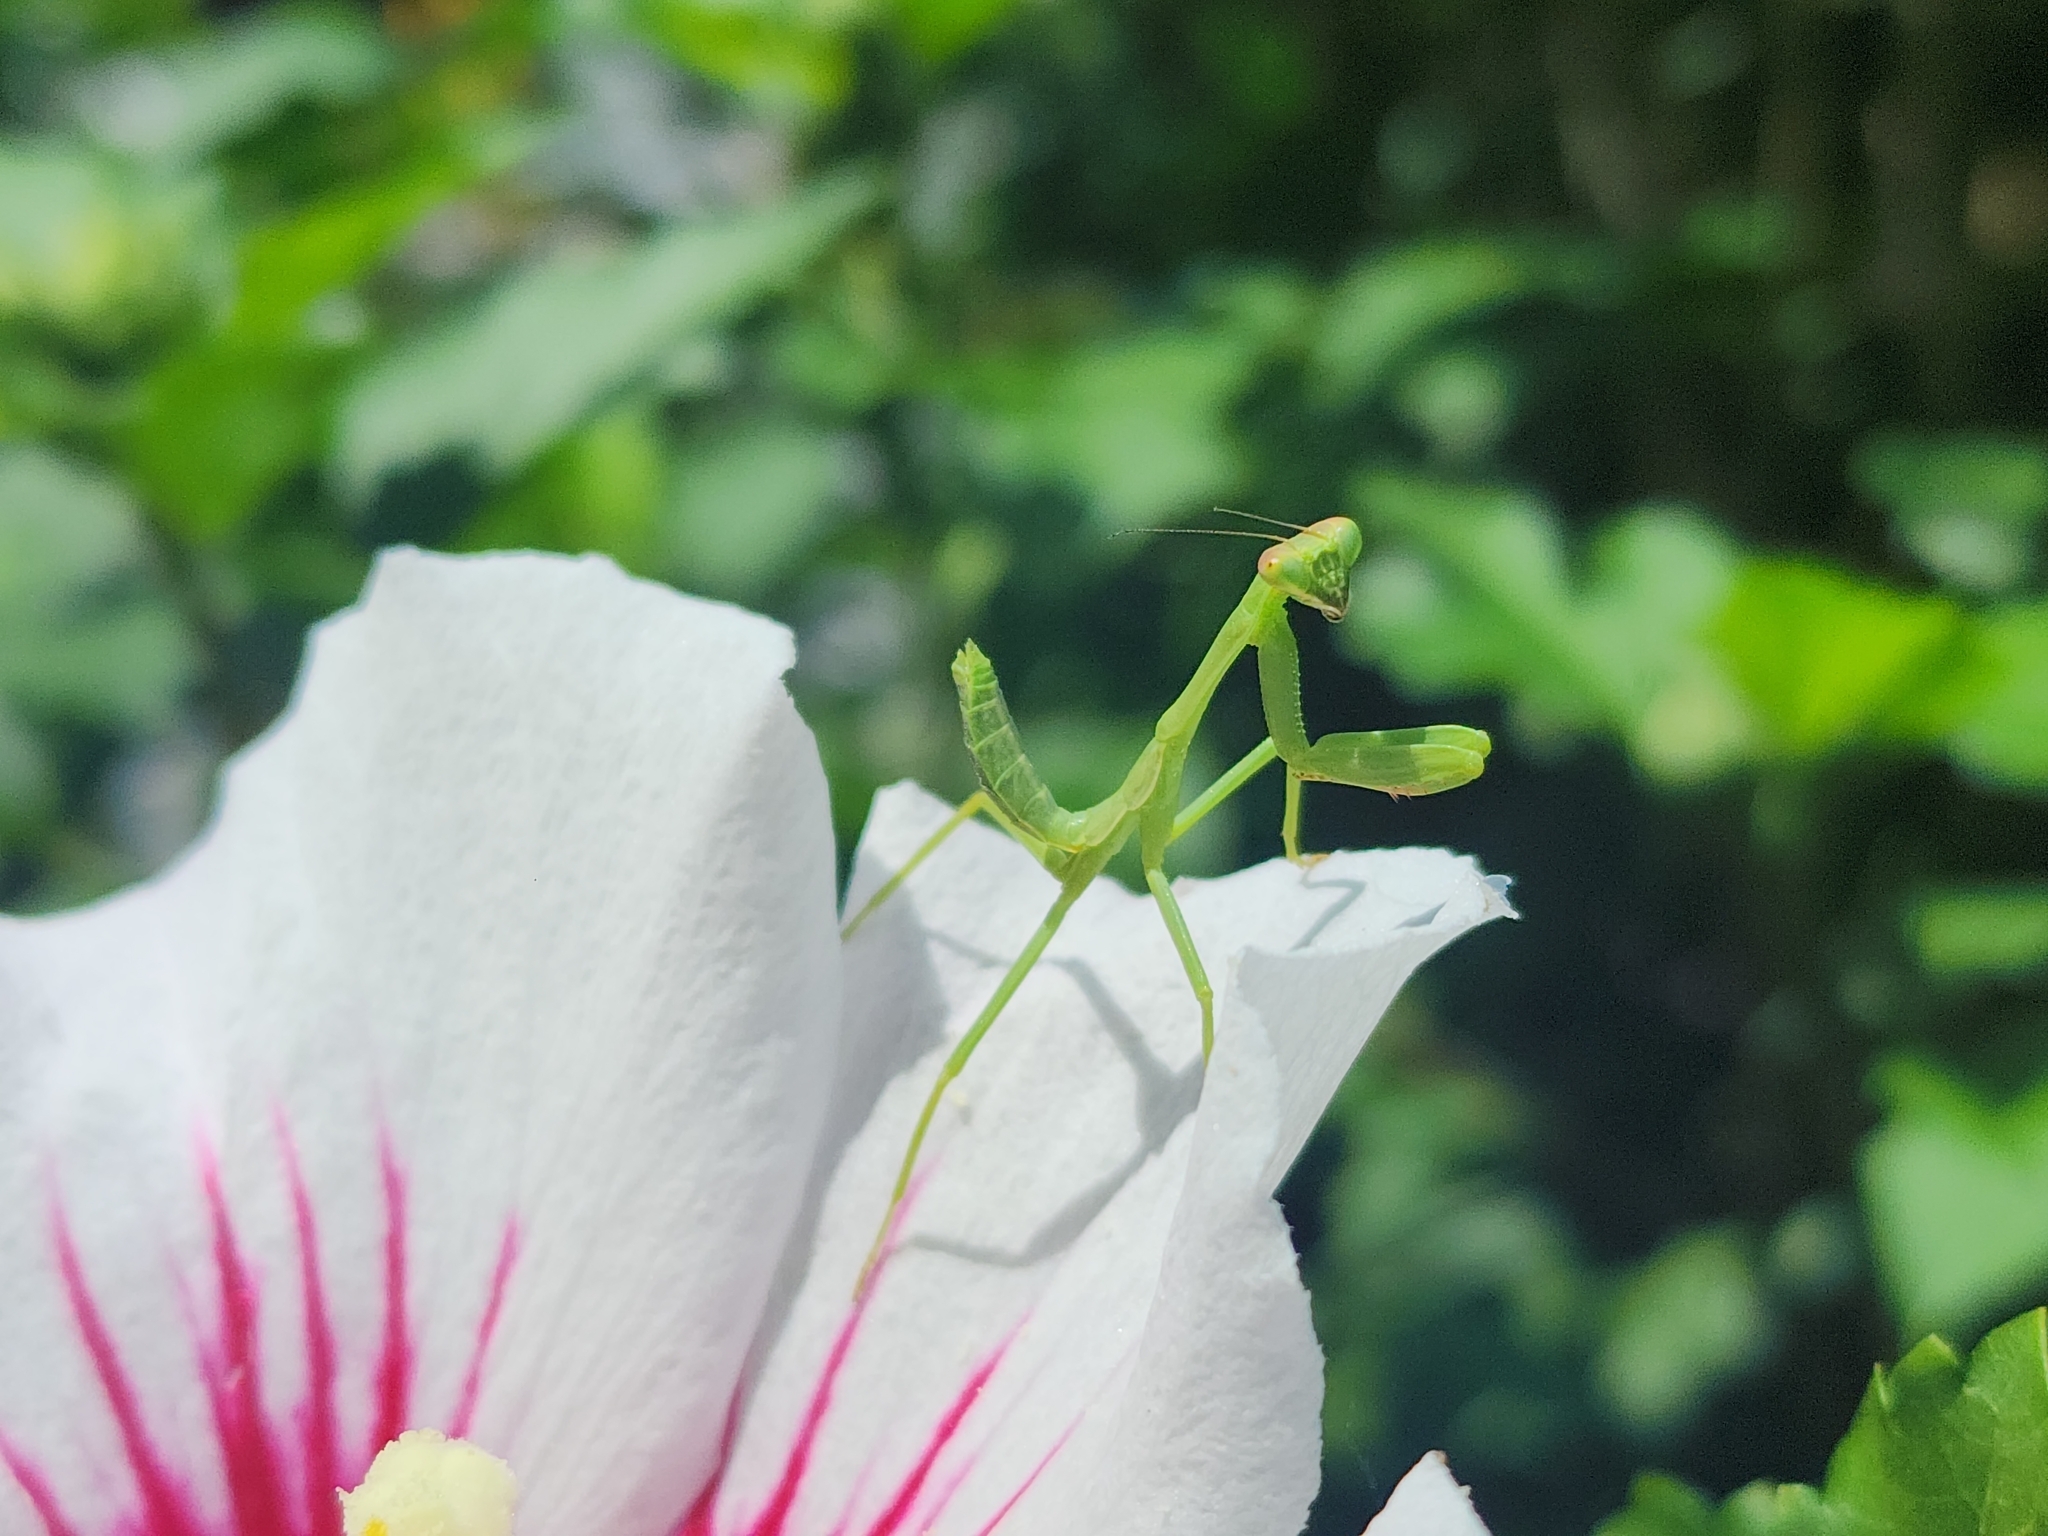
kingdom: Animalia
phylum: Arthropoda
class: Insecta
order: Mantodea
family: Mantidae
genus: Stagmatoptera
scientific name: Stagmatoptera hyaloptera
